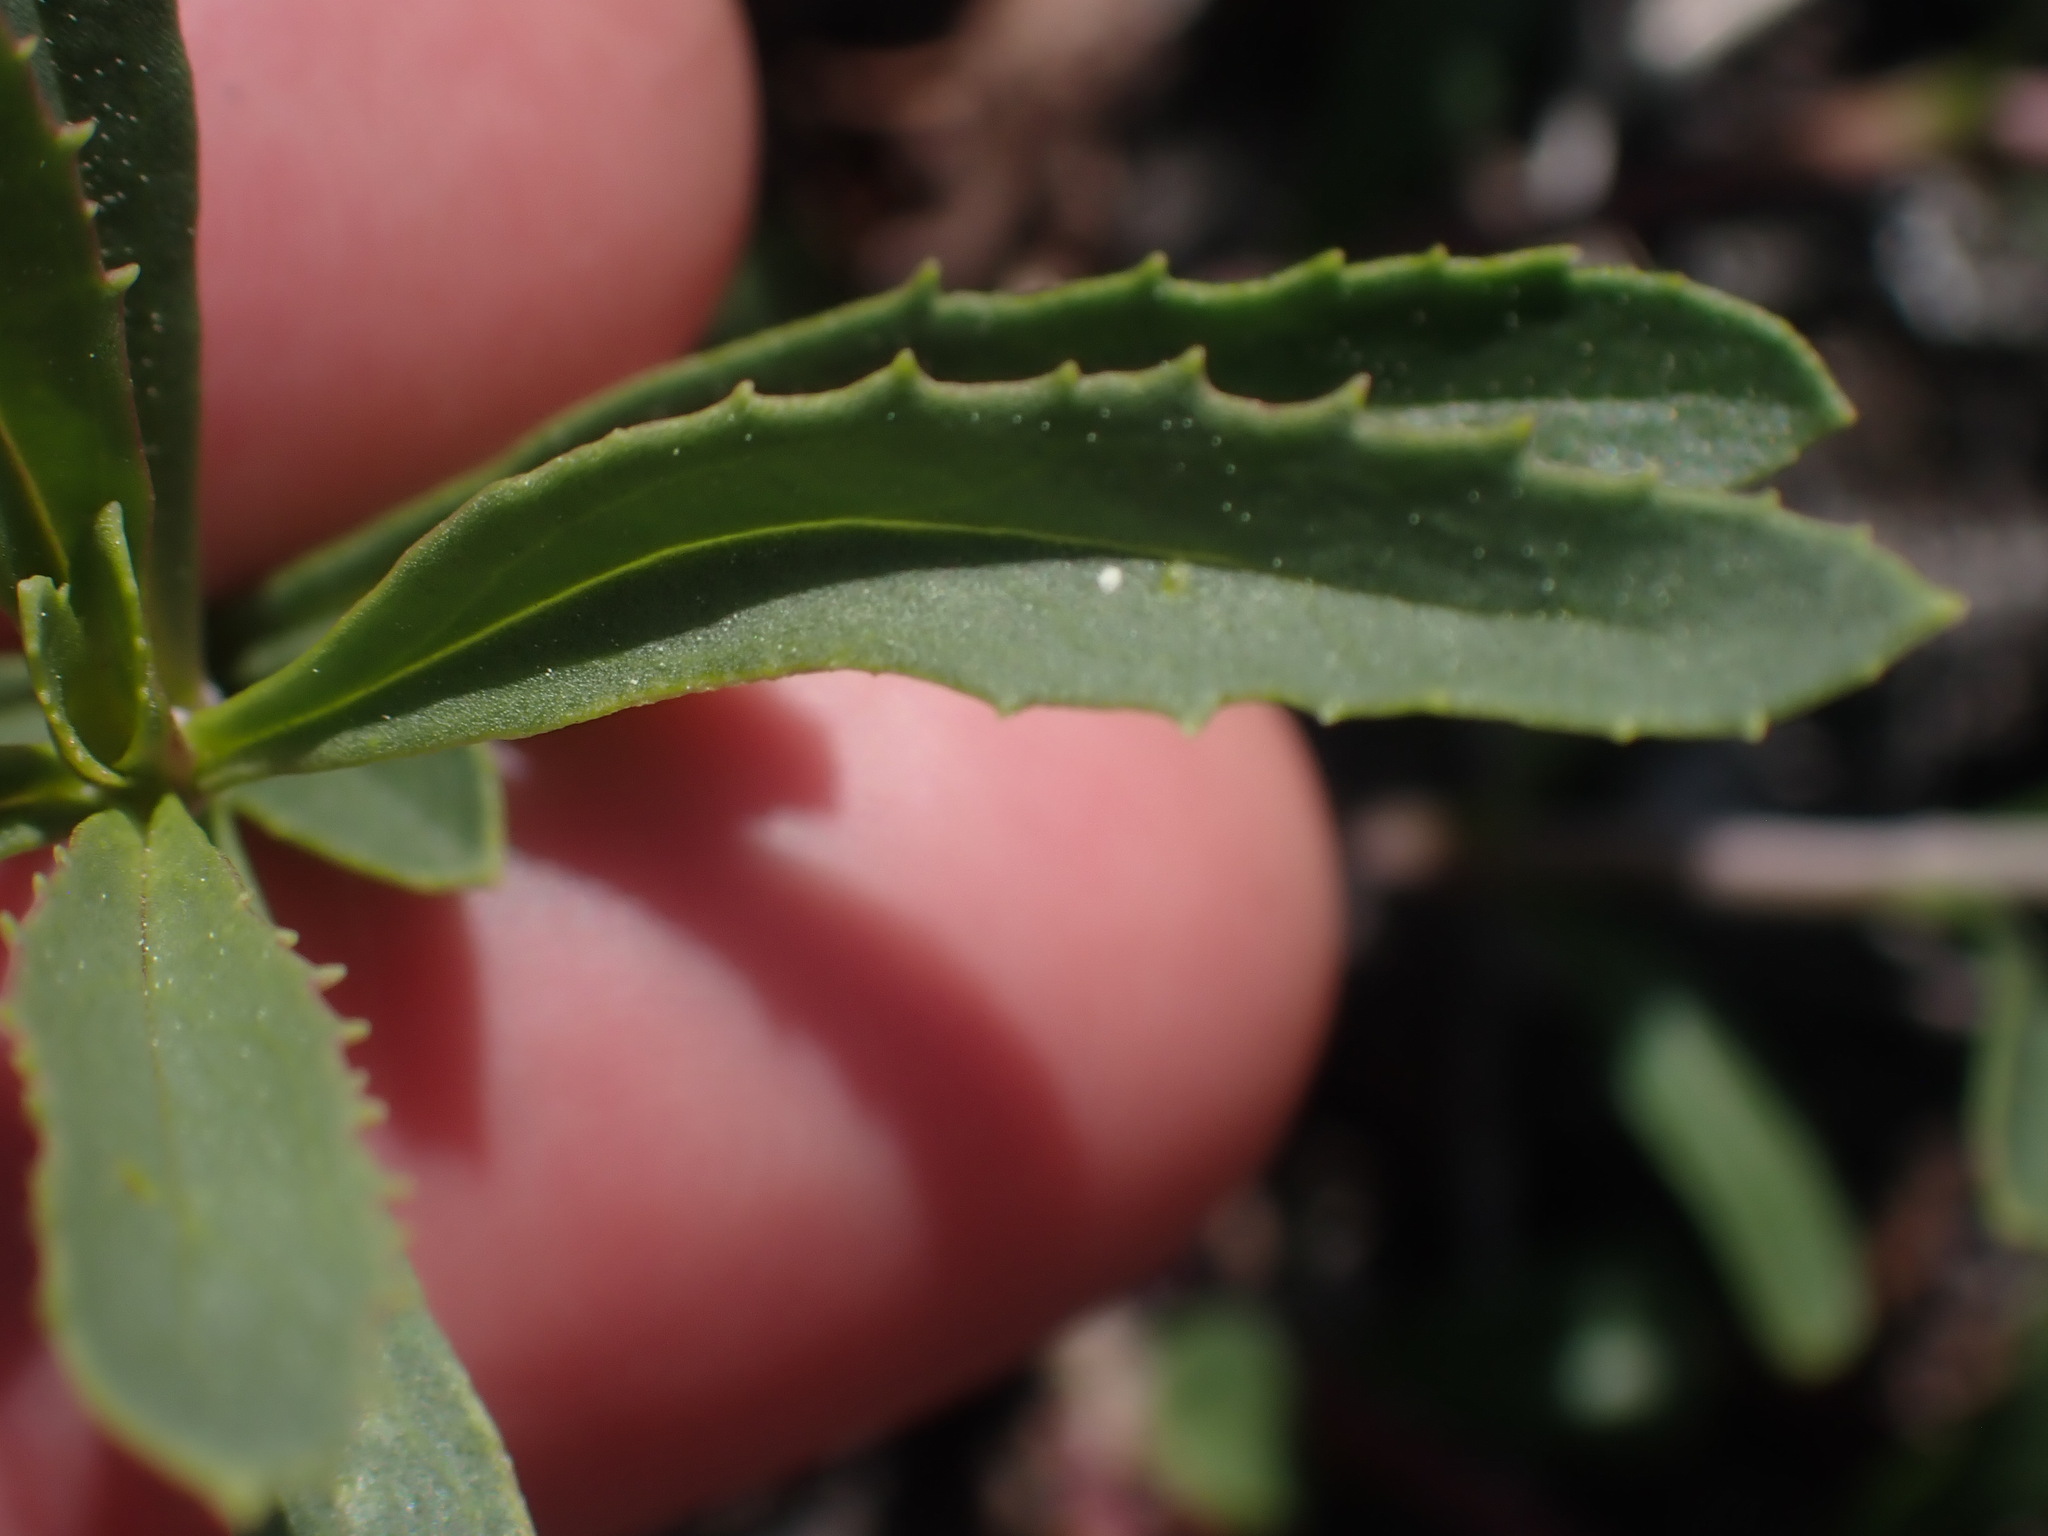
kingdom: Plantae
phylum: Tracheophyta
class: Magnoliopsida
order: Lamiales
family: Plantaginaceae
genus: Penstemon
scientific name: Penstemon fruticosus
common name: Bush penstemon
